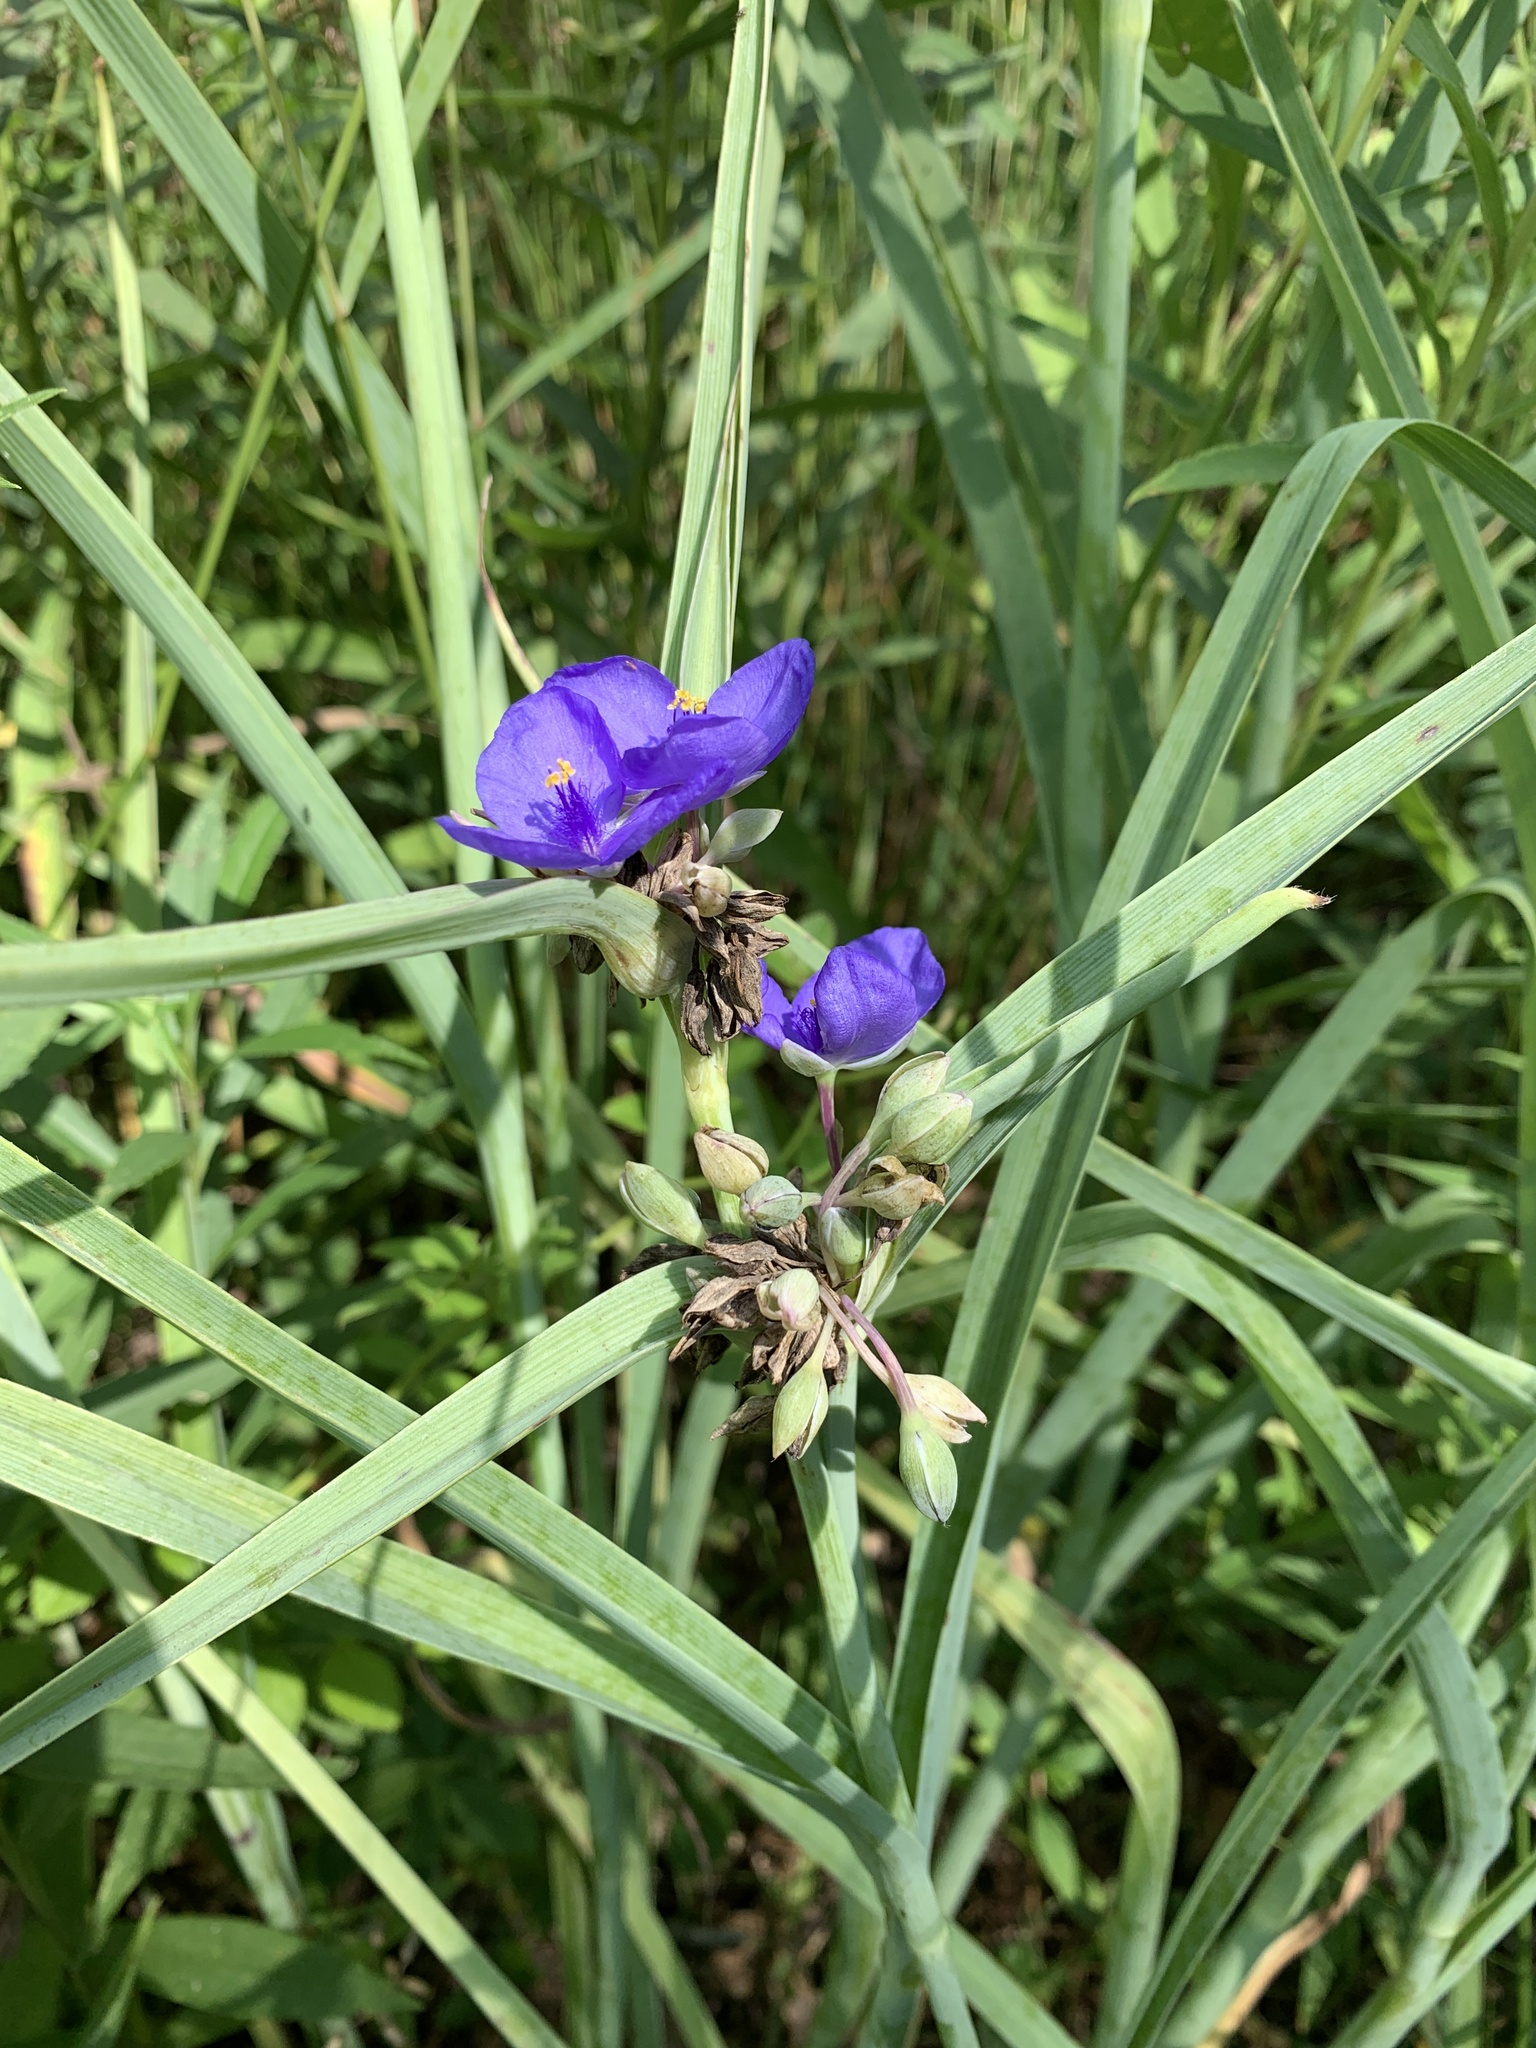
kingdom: Plantae
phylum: Tracheophyta
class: Liliopsida
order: Commelinales
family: Commelinaceae
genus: Tradescantia
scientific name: Tradescantia ohiensis
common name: Ohio spiderwort
